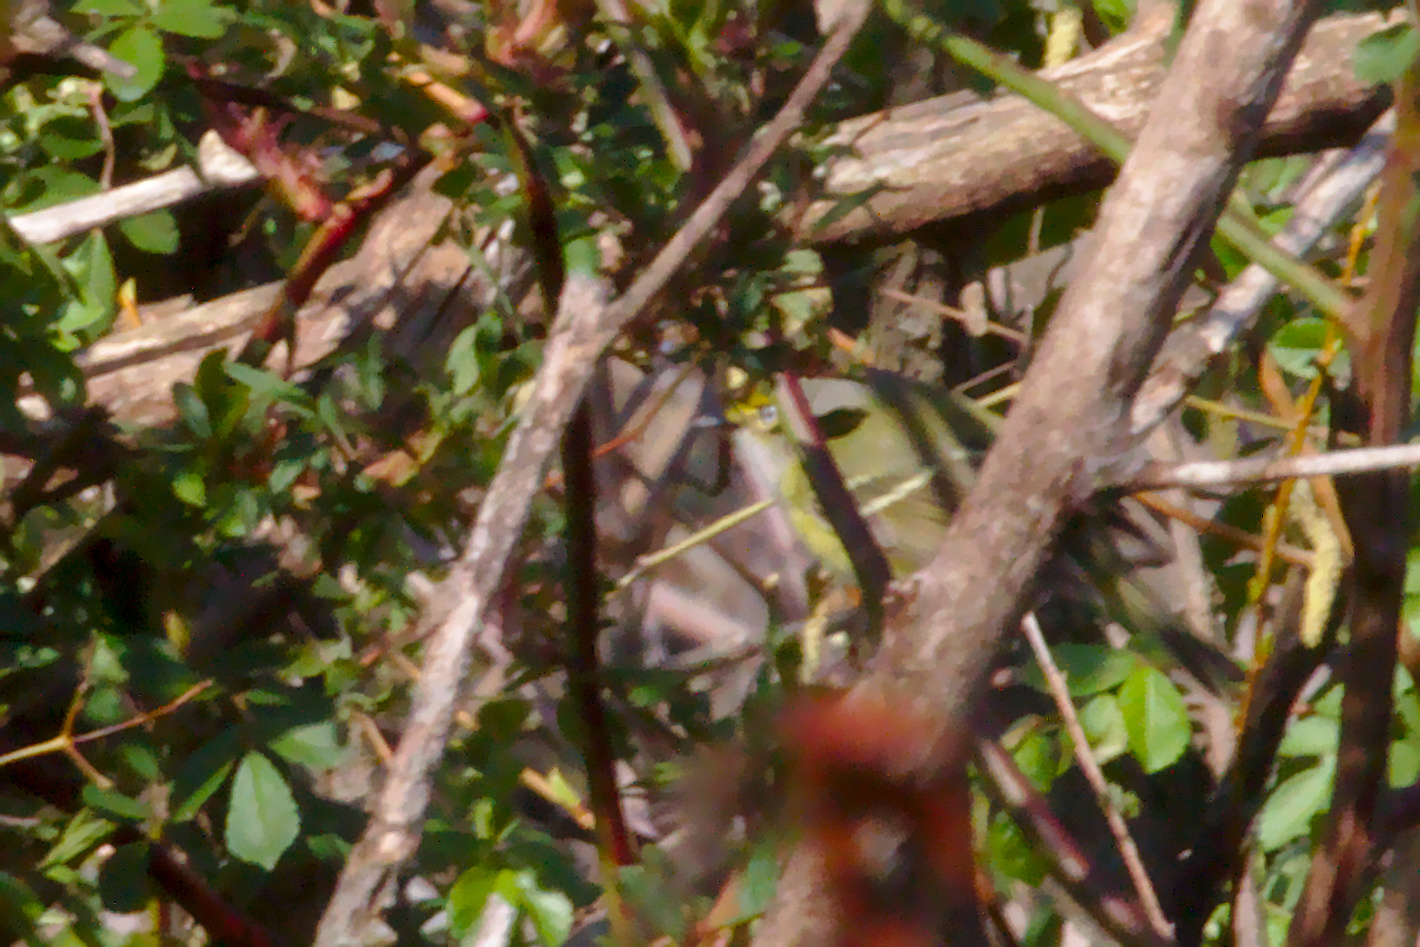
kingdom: Animalia
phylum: Chordata
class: Aves
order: Passeriformes
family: Vireonidae
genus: Vireo
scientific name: Vireo griseus
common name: White-eyed vireo
